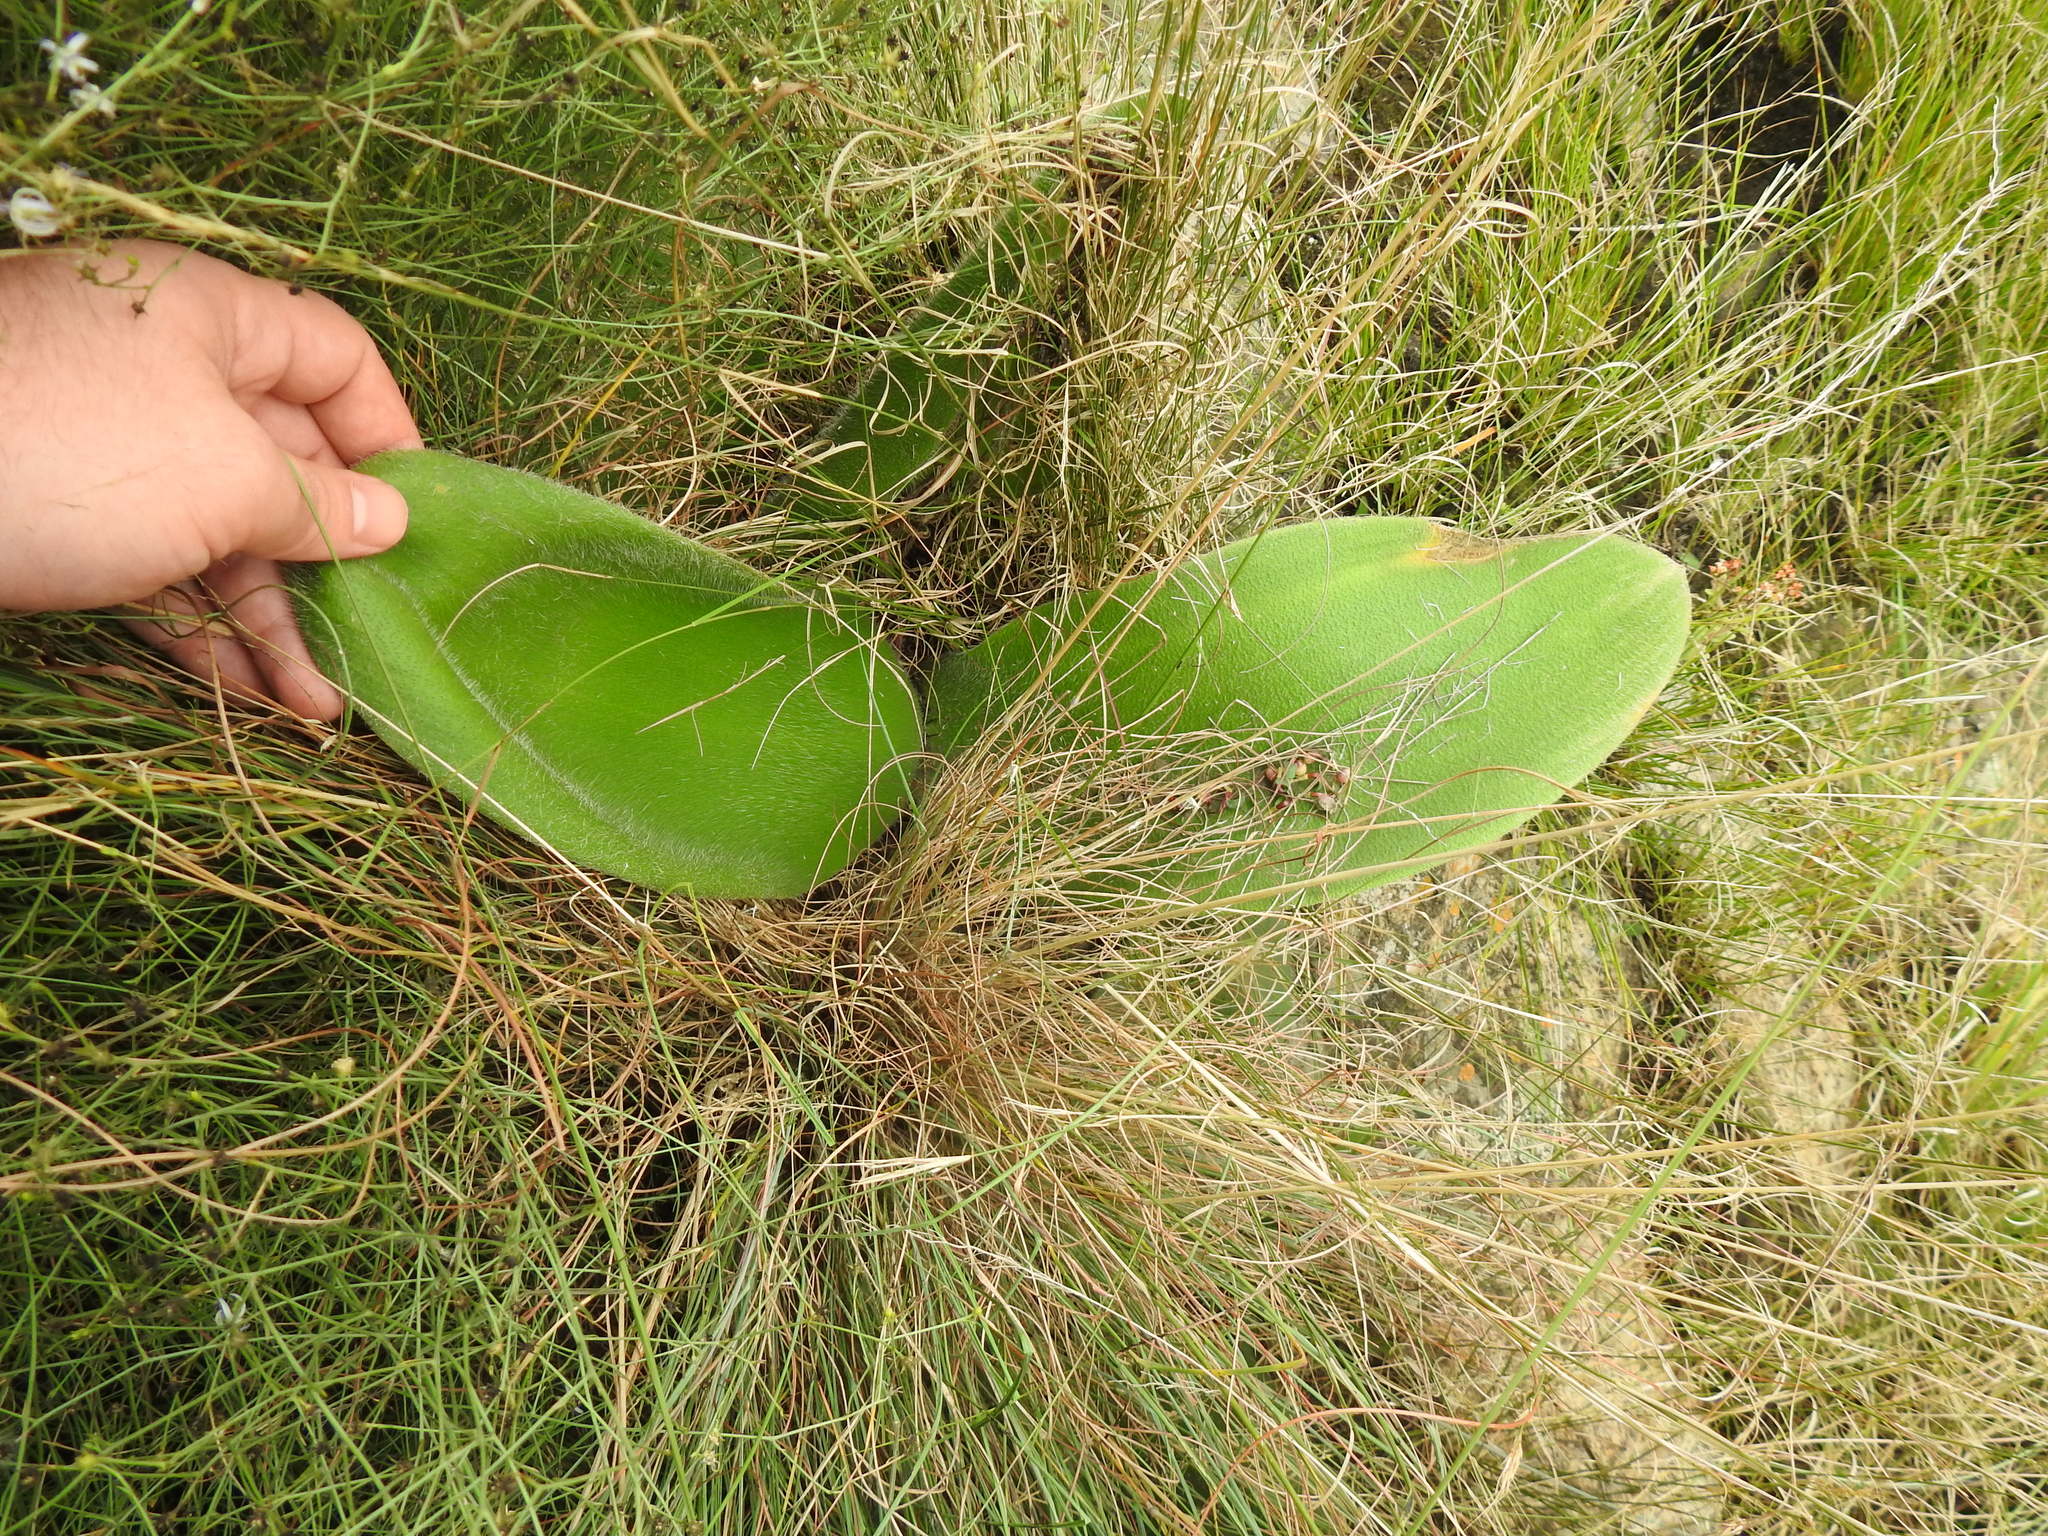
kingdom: Plantae
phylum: Tracheophyta
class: Liliopsida
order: Asparagales
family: Amaryllidaceae
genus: Haemanthus
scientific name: Haemanthus humilis
